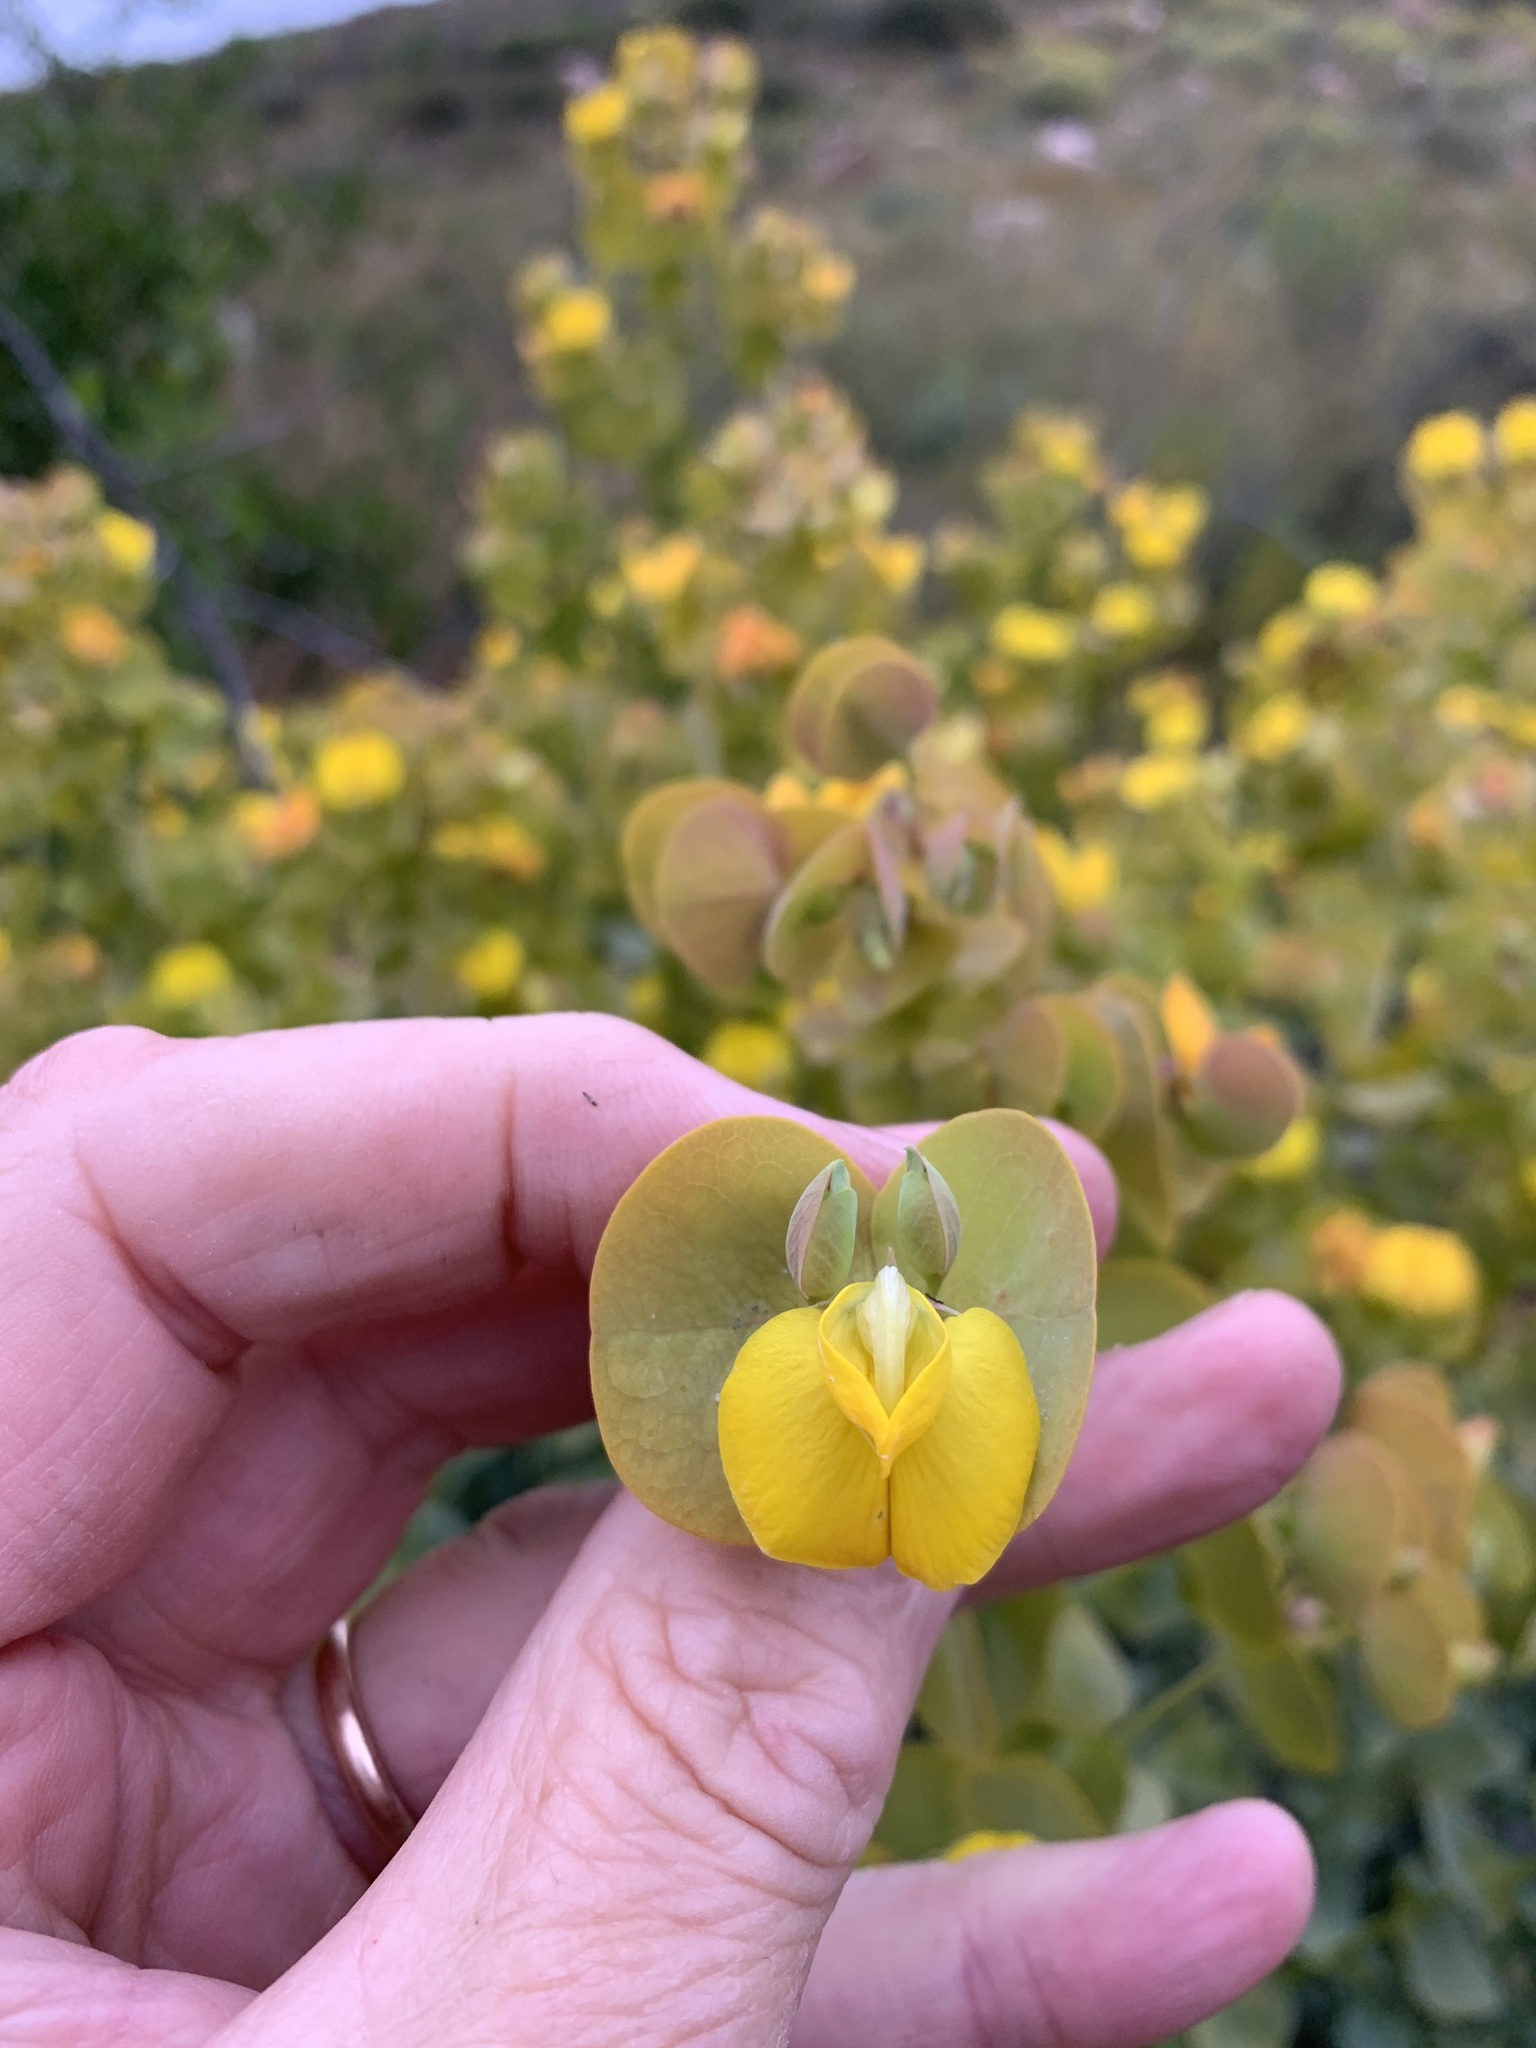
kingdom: Plantae
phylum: Tracheophyta
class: Magnoliopsida
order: Fabales
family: Fabaceae
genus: Rafnia
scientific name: Rafnia amplexicaulis
